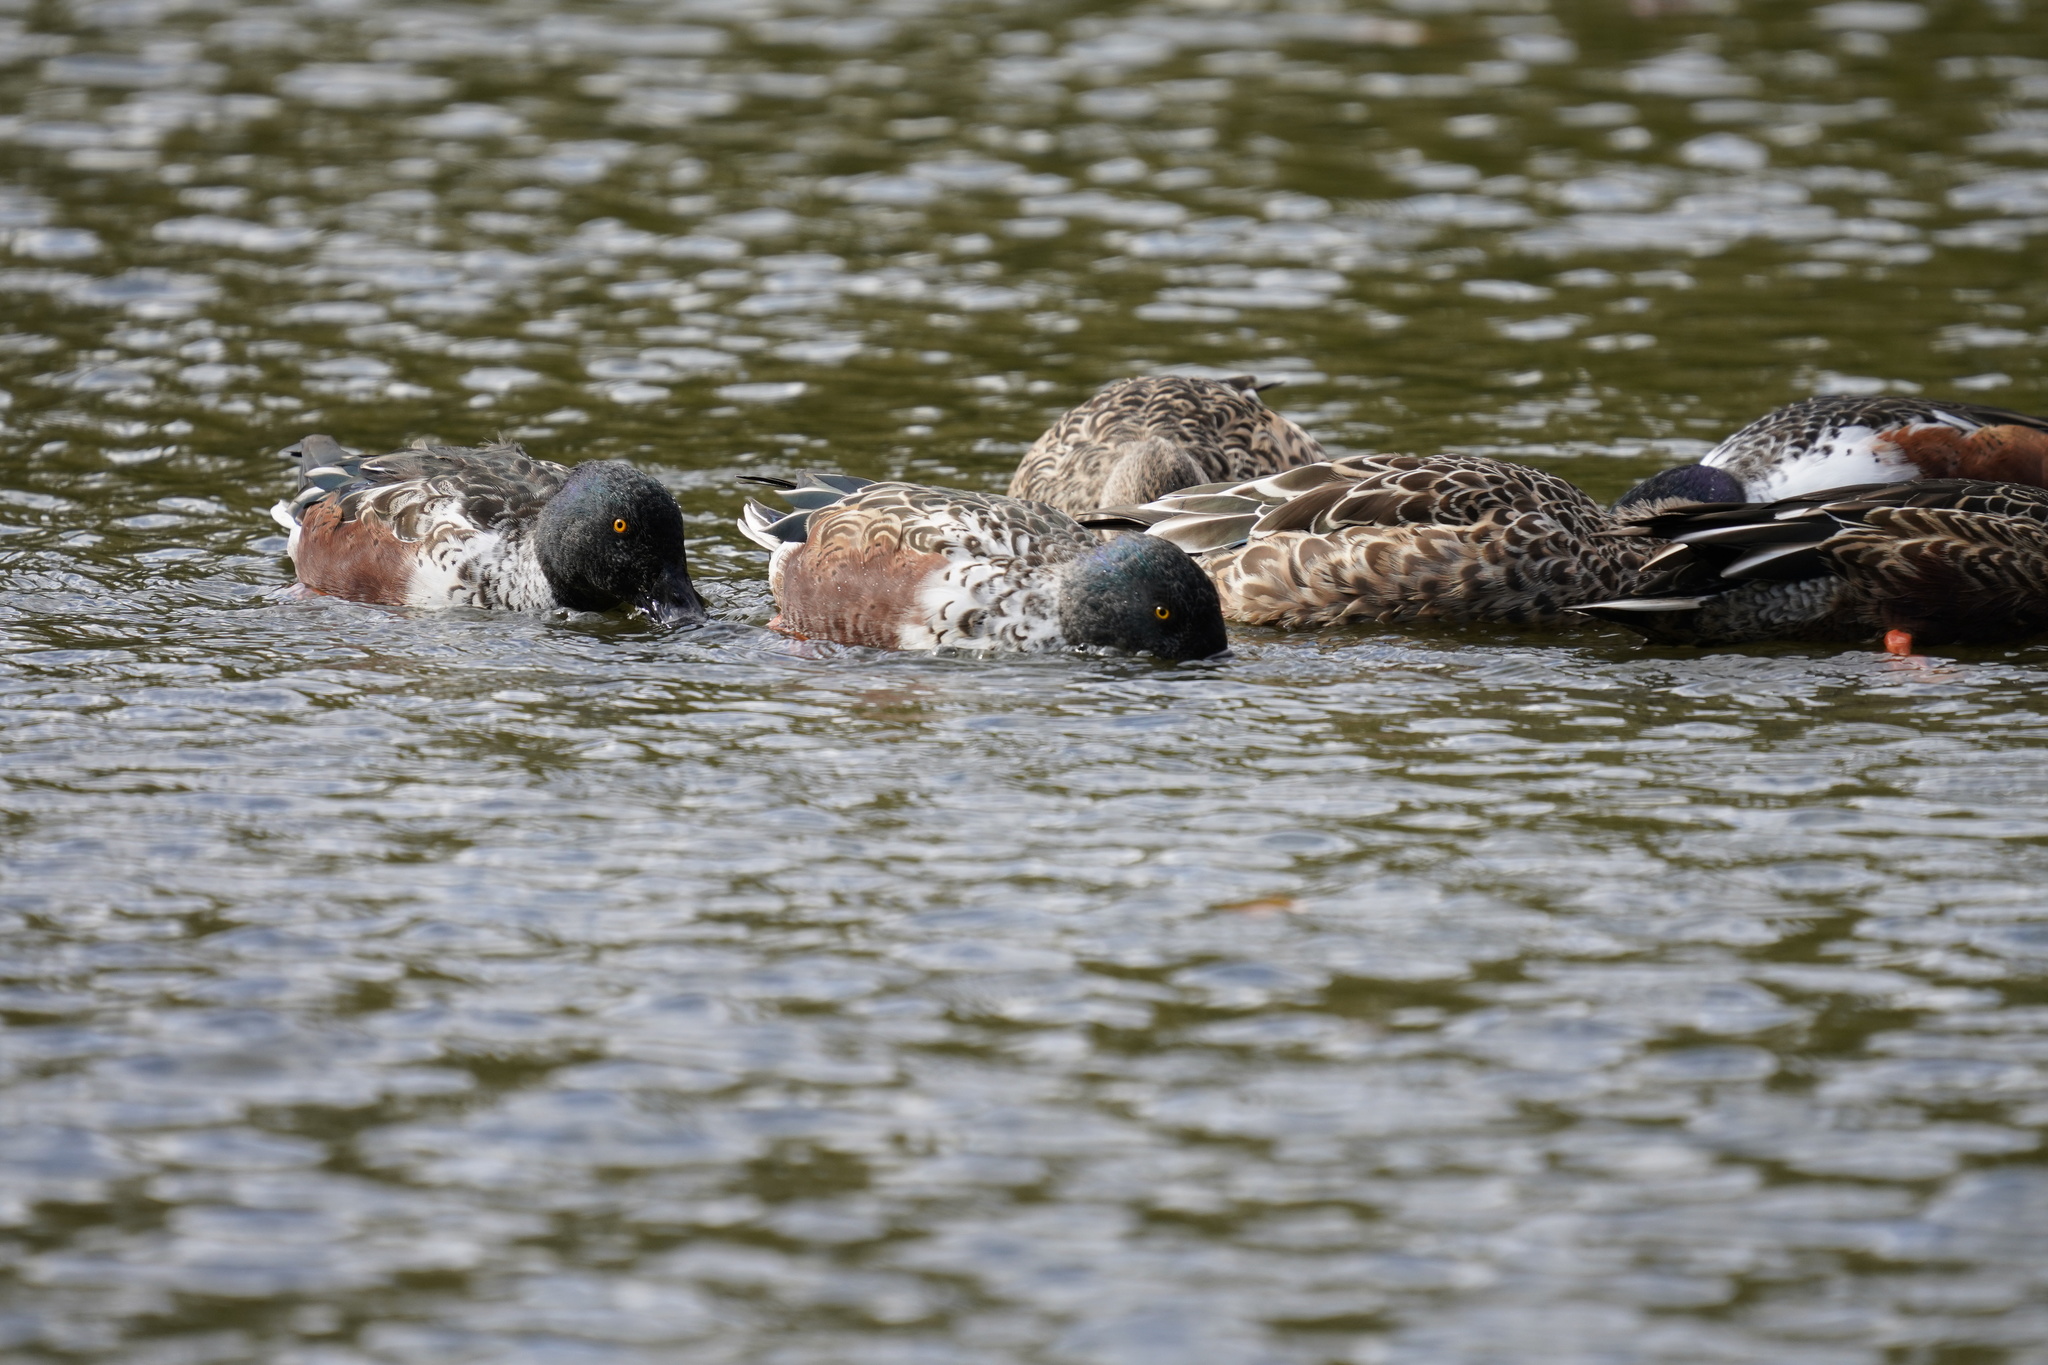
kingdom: Animalia
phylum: Chordata
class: Aves
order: Anseriformes
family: Anatidae
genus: Spatula
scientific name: Spatula clypeata
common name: Northern shoveler
